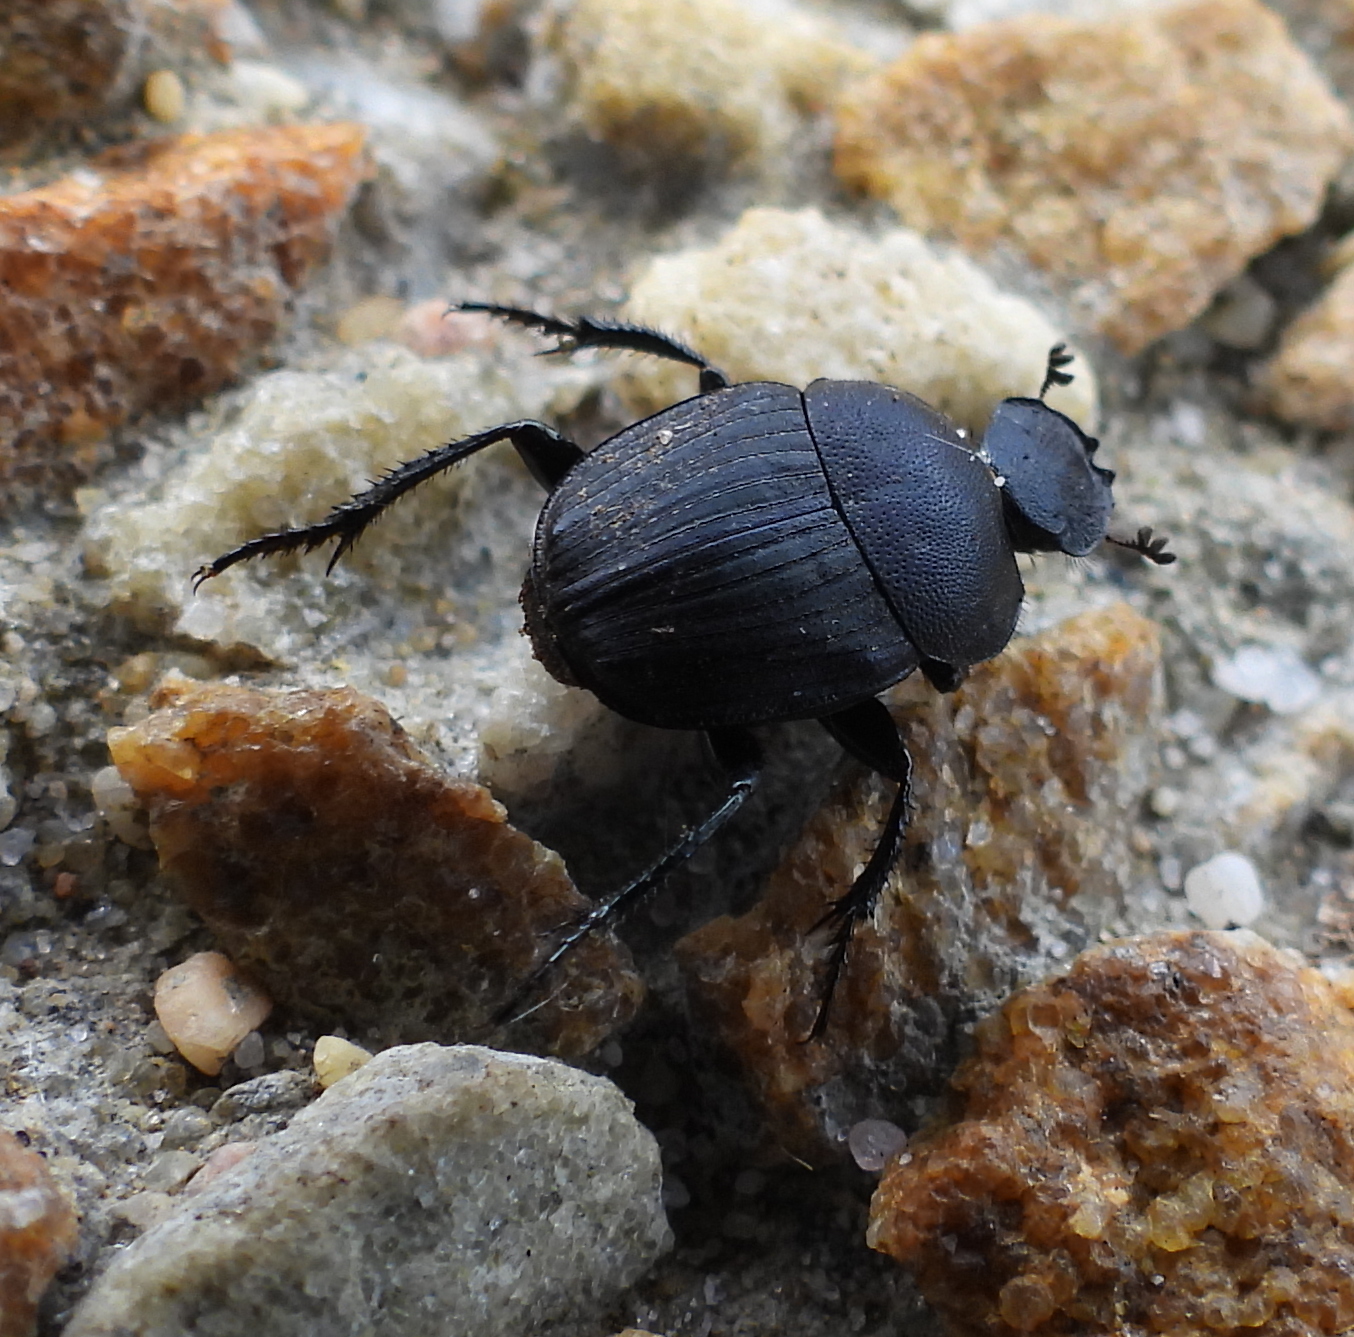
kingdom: Animalia
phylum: Arthropoda
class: Insecta
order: Coleoptera
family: Scarabaeidae
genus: Epirinus
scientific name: Epirinus aeneus
